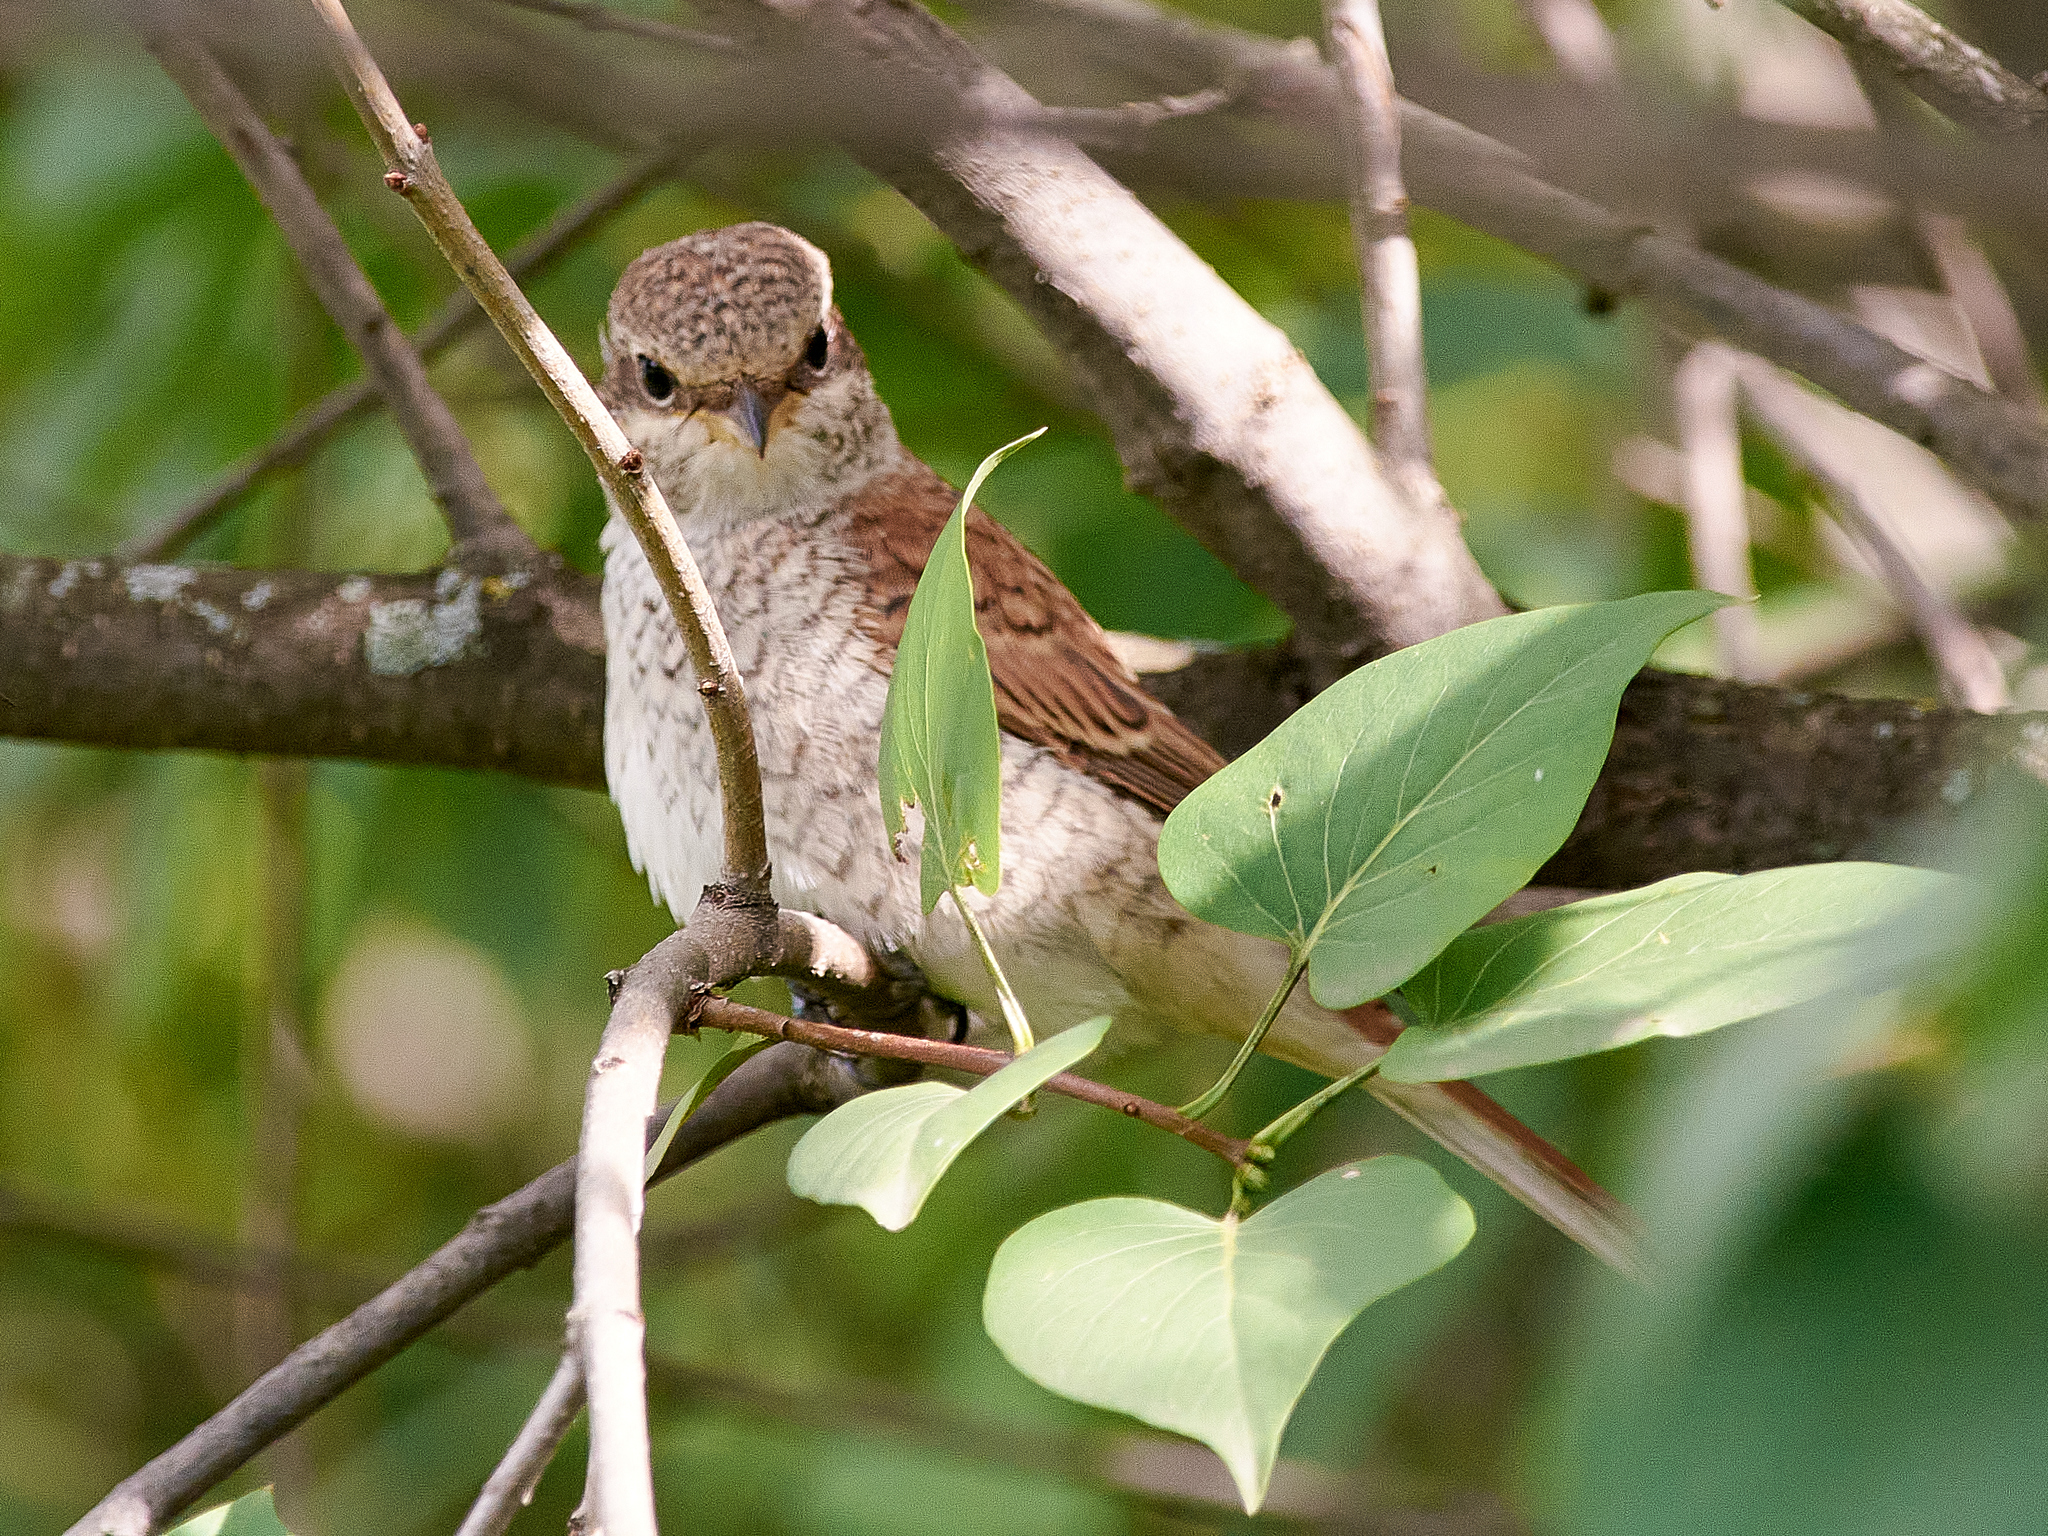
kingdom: Animalia
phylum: Chordata
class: Aves
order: Passeriformes
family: Laniidae
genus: Lanius
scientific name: Lanius collurio
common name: Red-backed shrike
